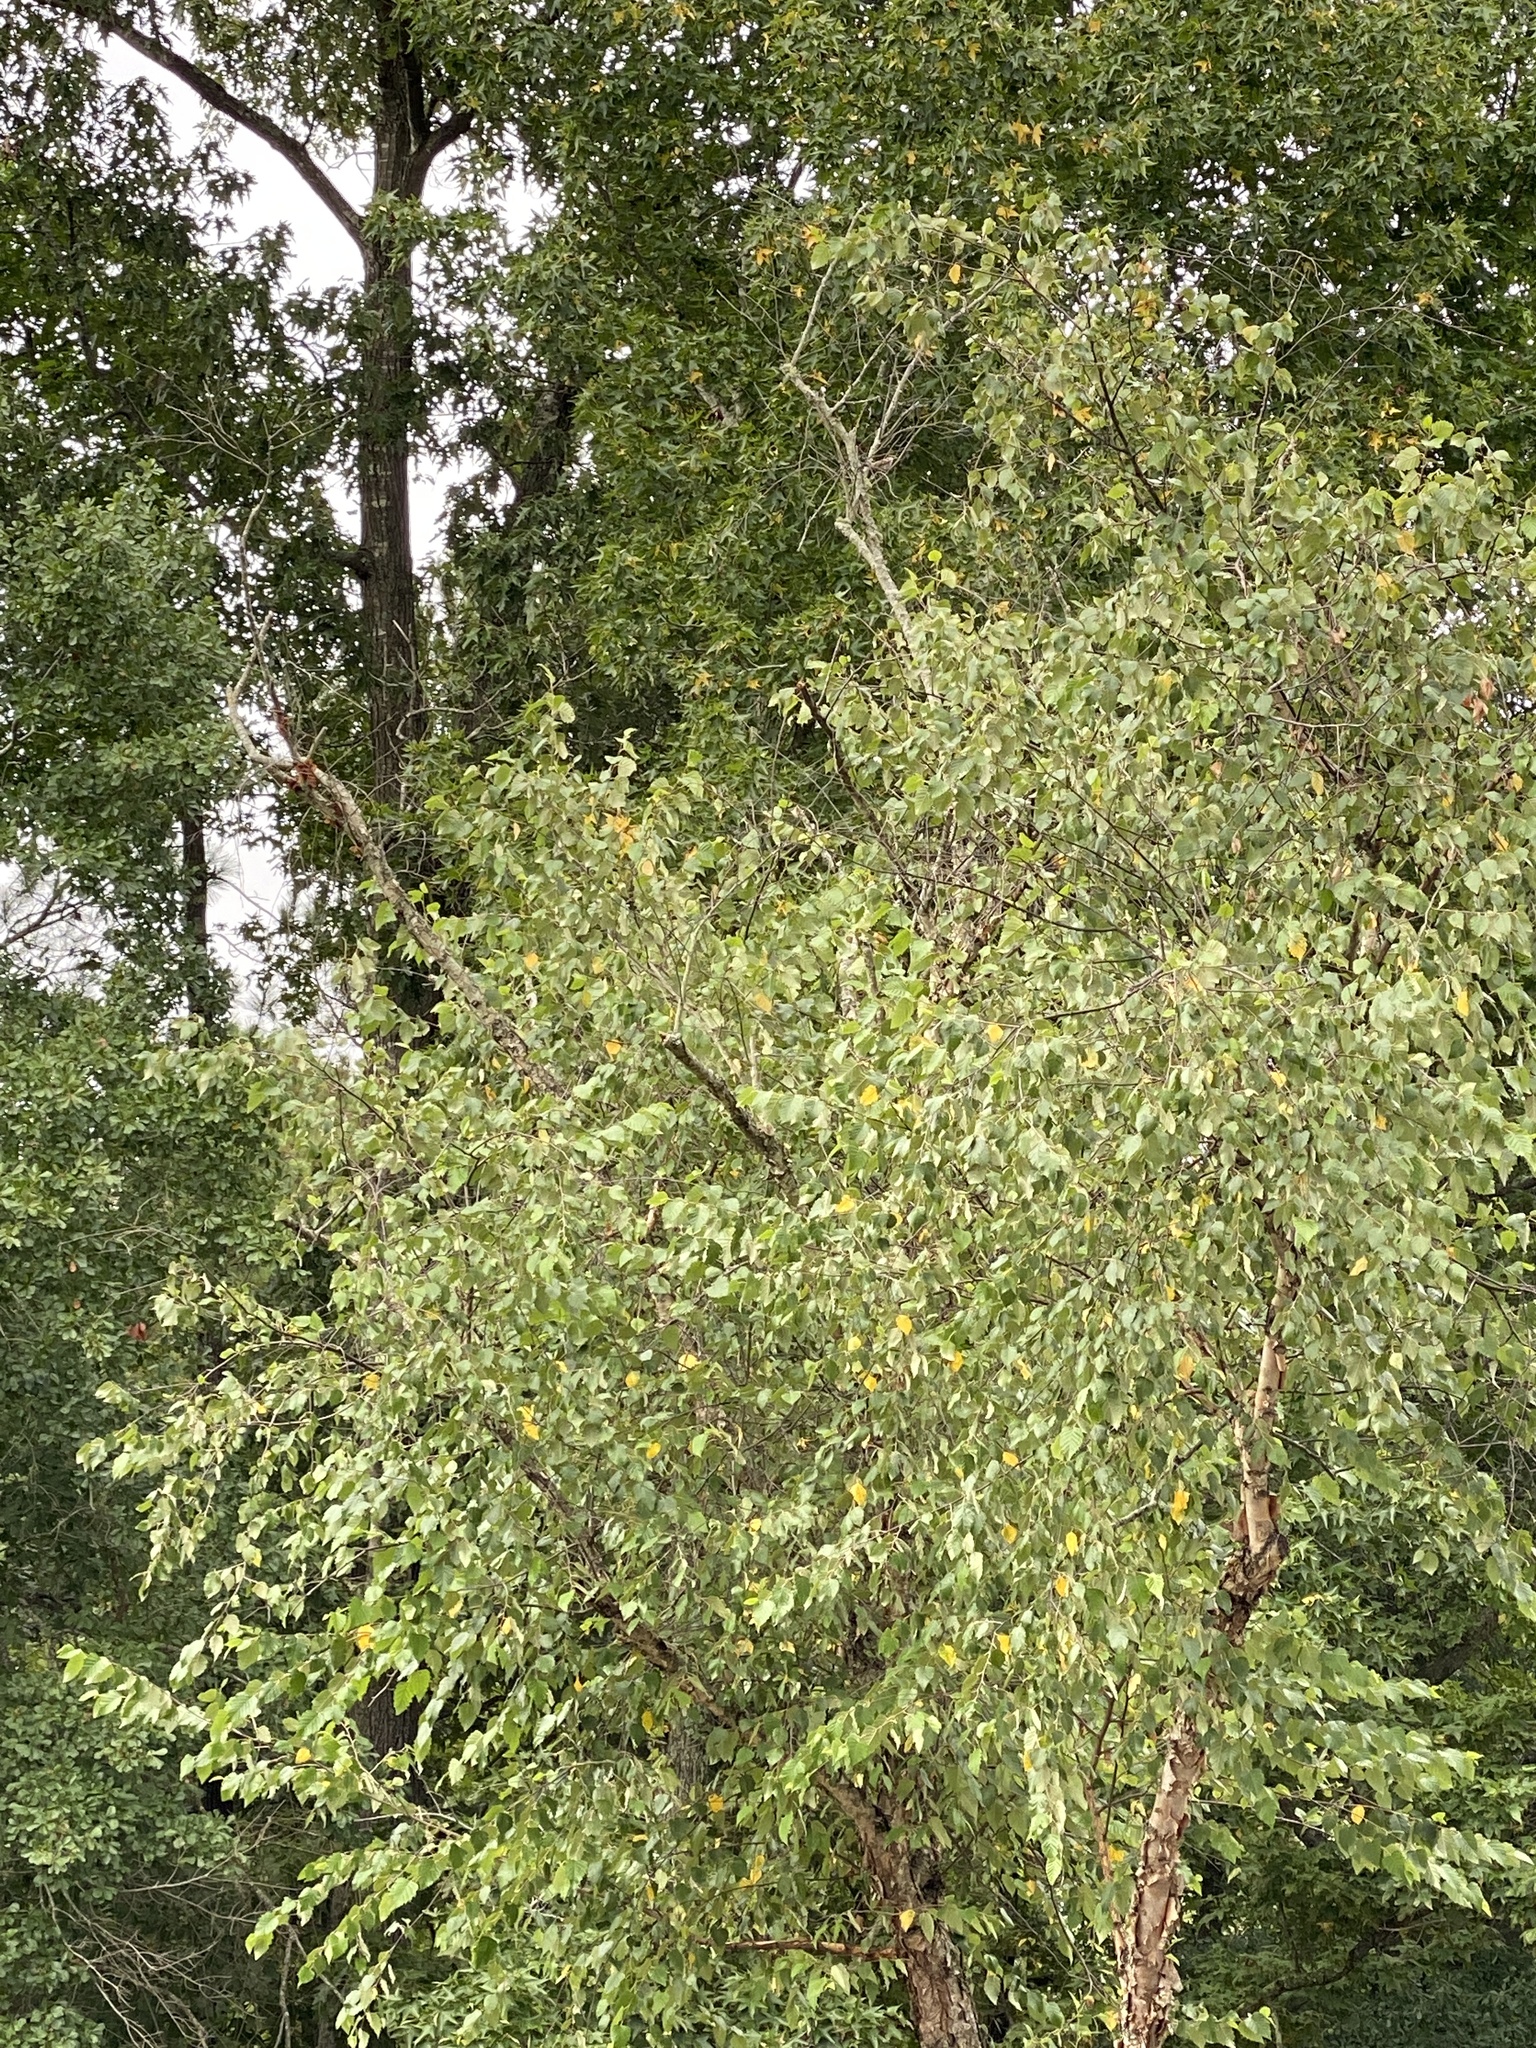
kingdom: Animalia
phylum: Chordata
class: Aves
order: Passeriformes
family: Troglodytidae
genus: Troglodytes
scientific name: Troglodytes aedon
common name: House wren
